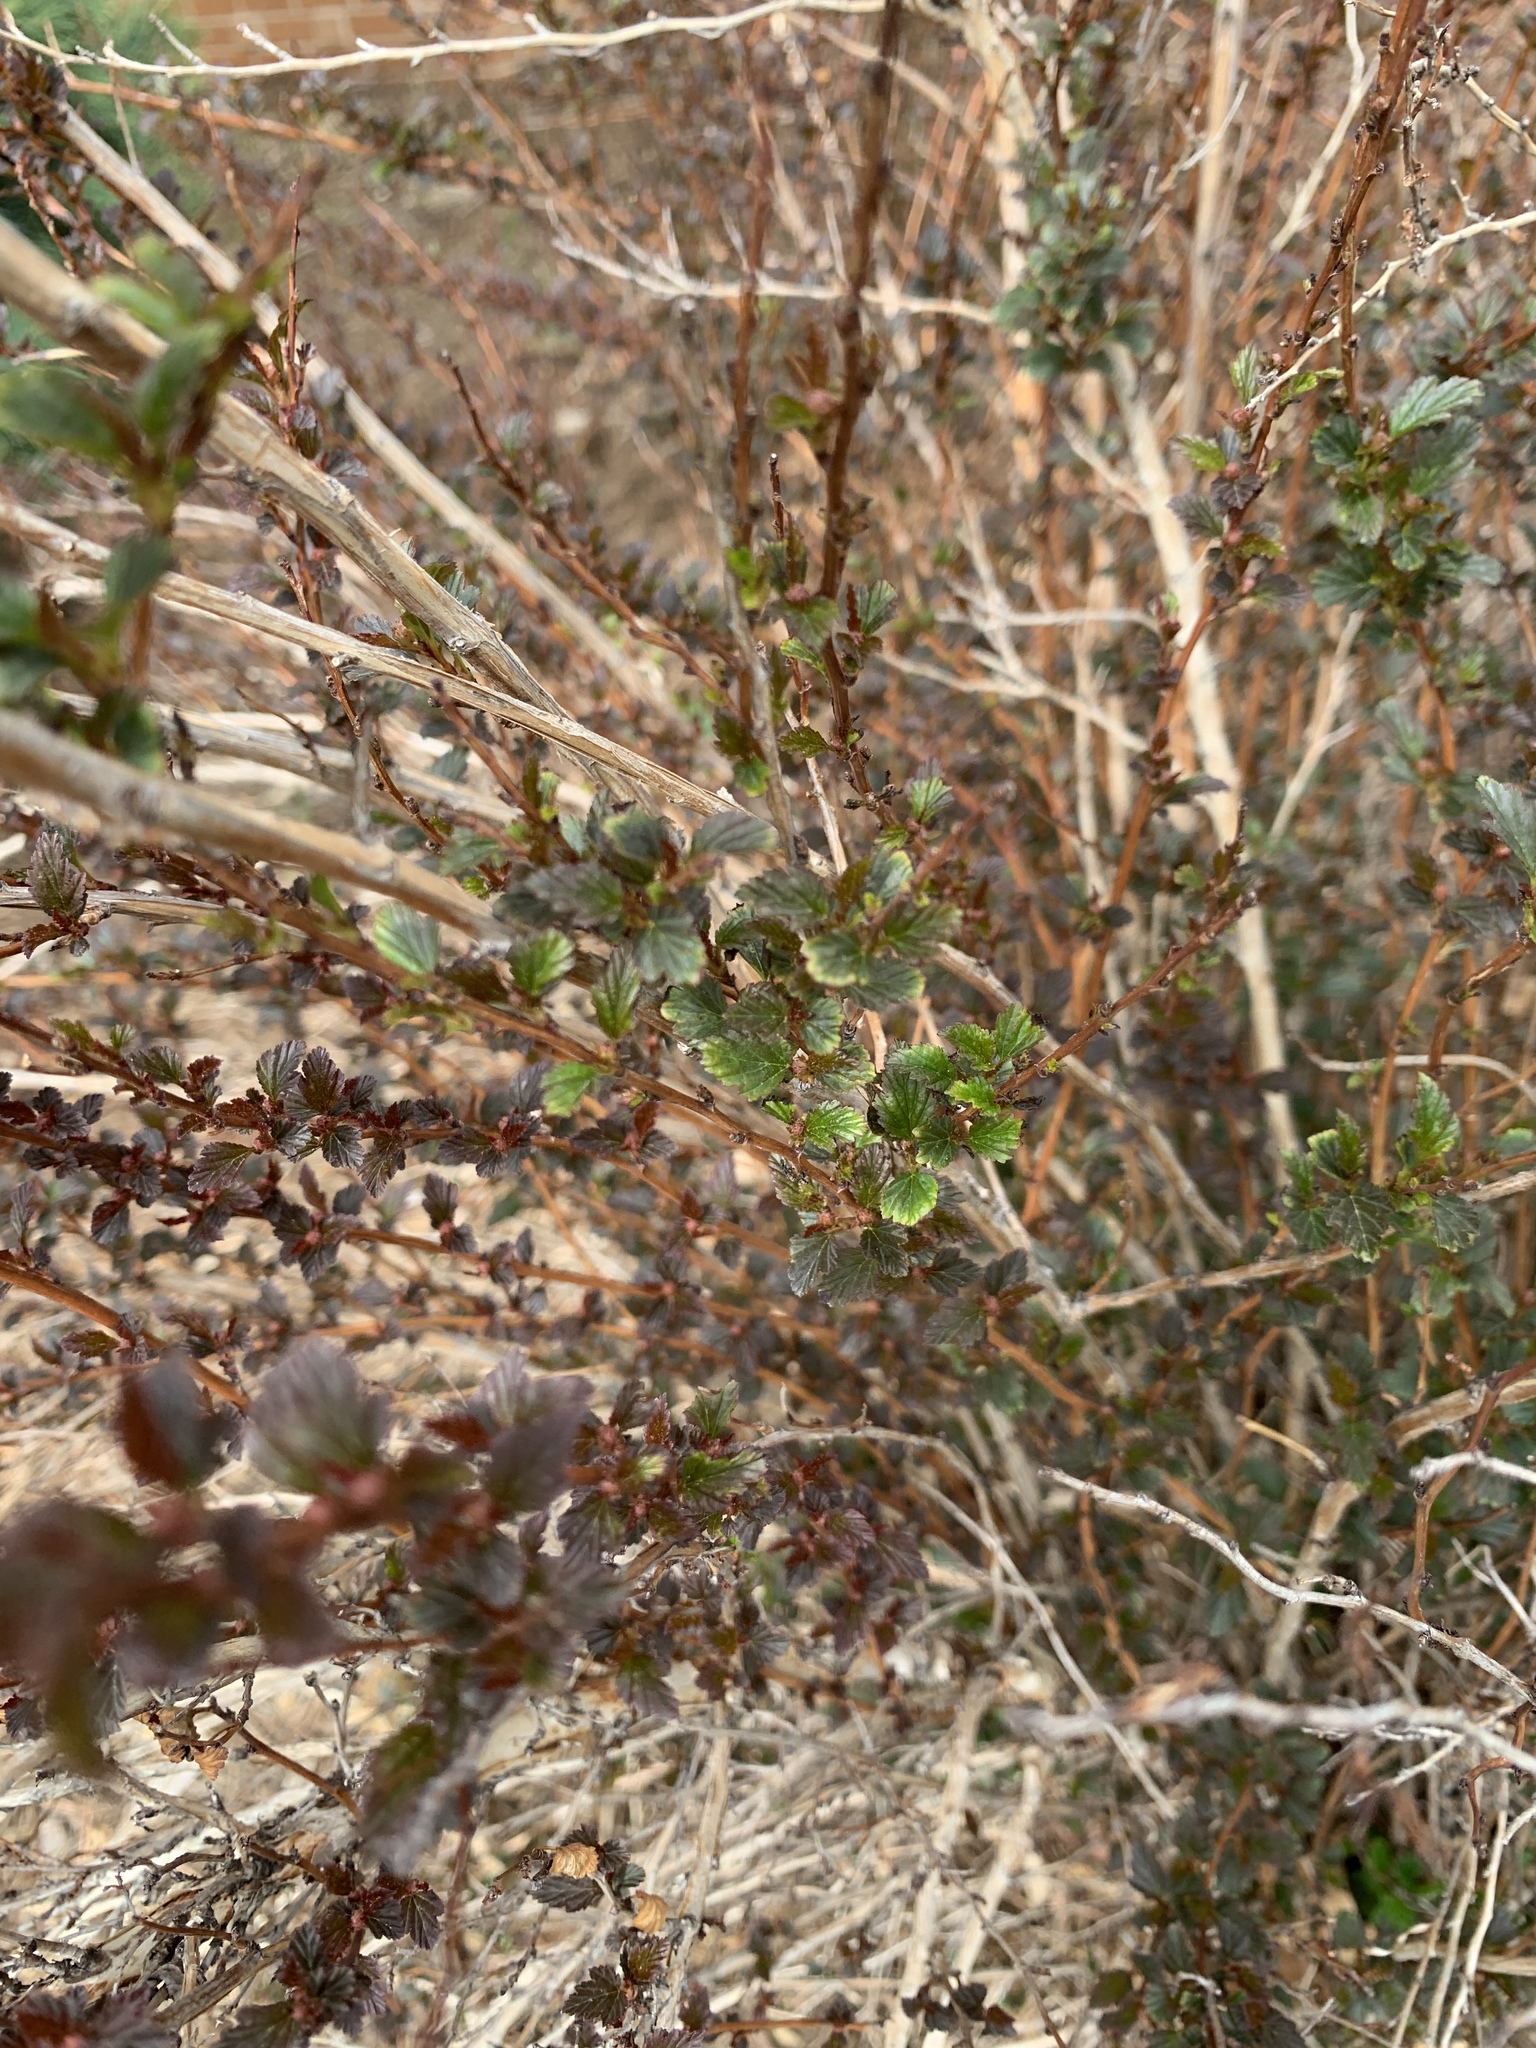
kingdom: Plantae
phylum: Tracheophyta
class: Magnoliopsida
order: Rosales
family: Rosaceae
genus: Cercocarpus
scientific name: Cercocarpus montanus
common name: Alder-leaf cercocarpus
